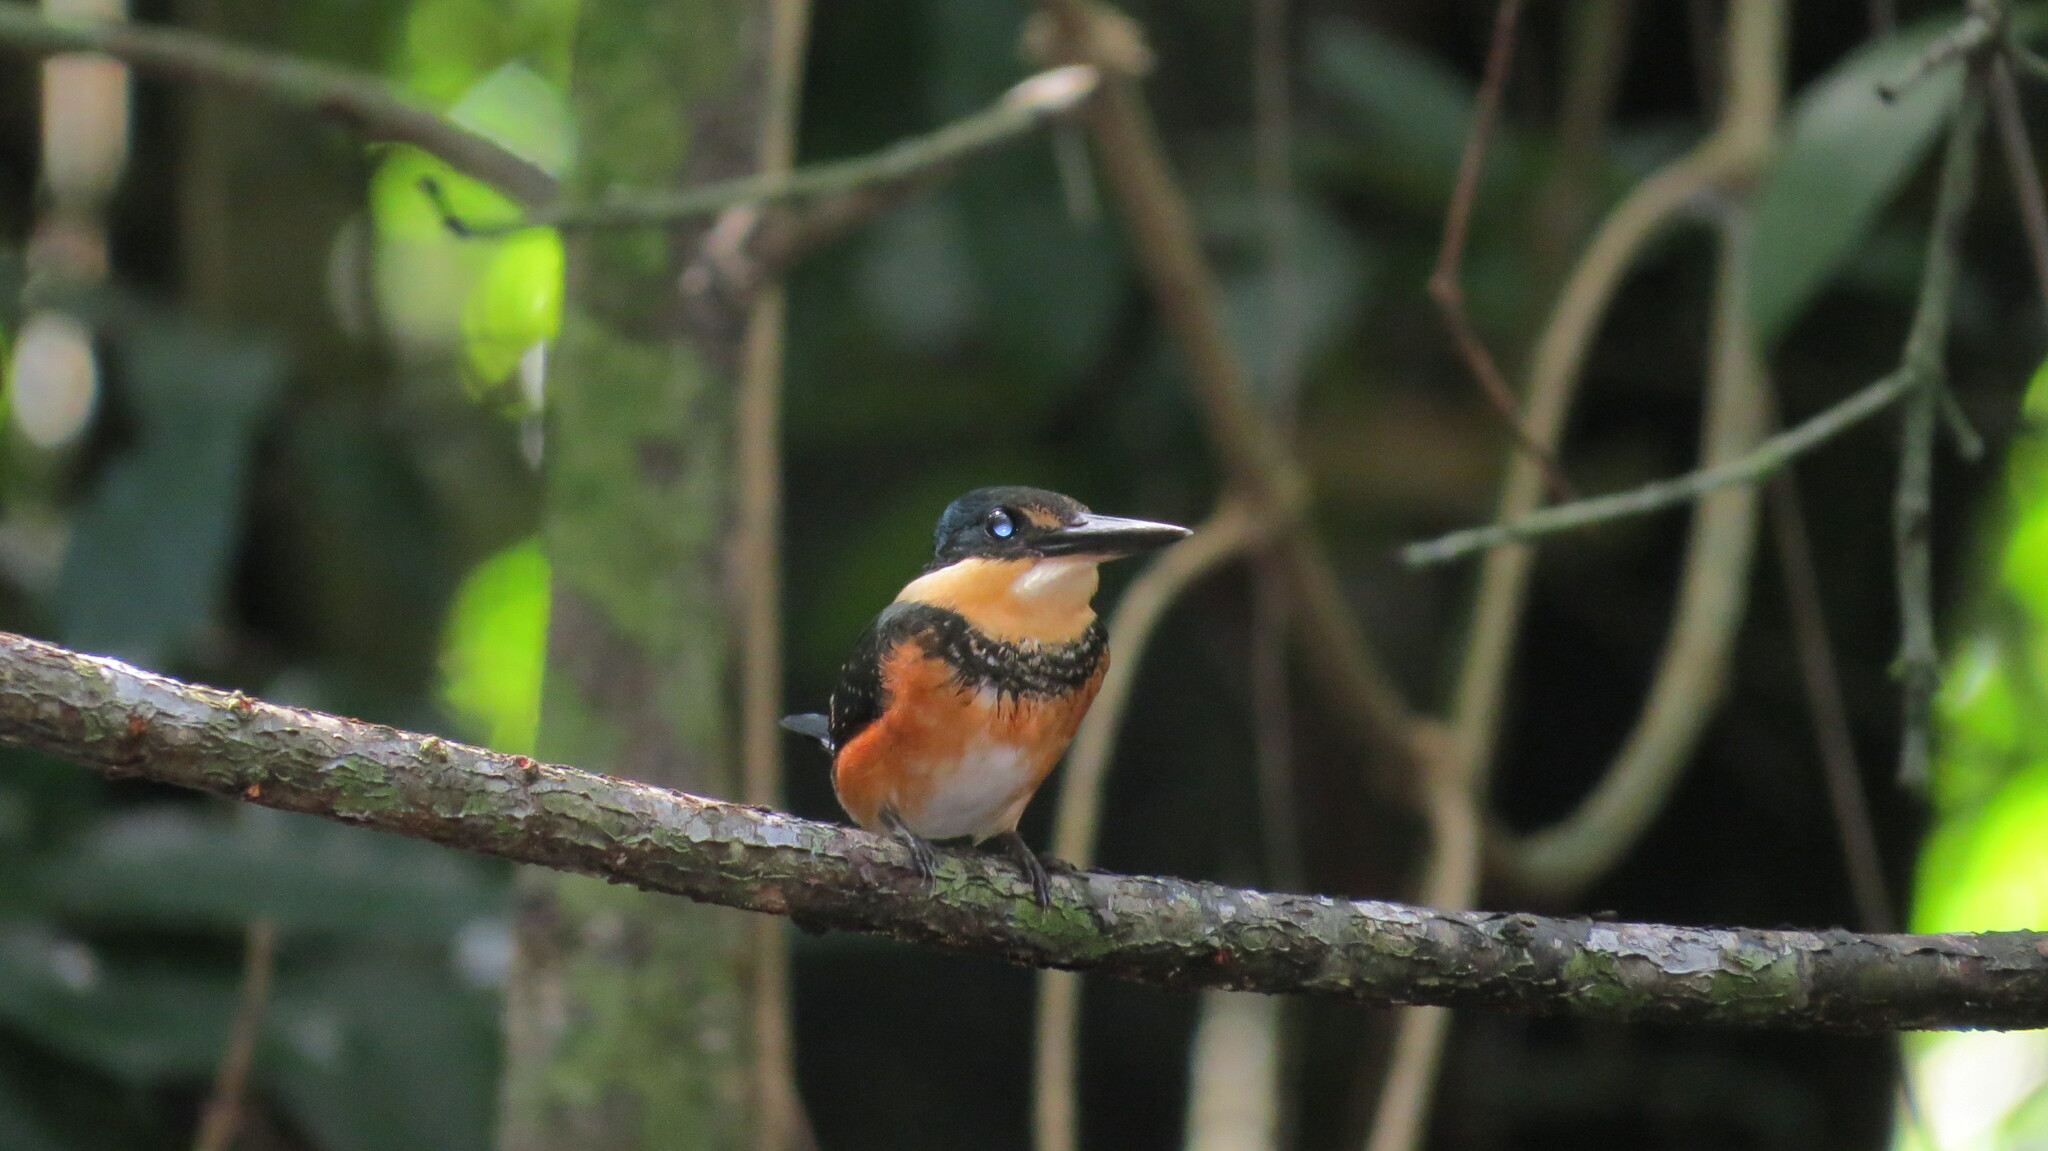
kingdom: Animalia
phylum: Chordata
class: Aves
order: Coraciiformes
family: Alcedinidae
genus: Chloroceryle
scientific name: Chloroceryle aenea
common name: American pygmy kingfisher
